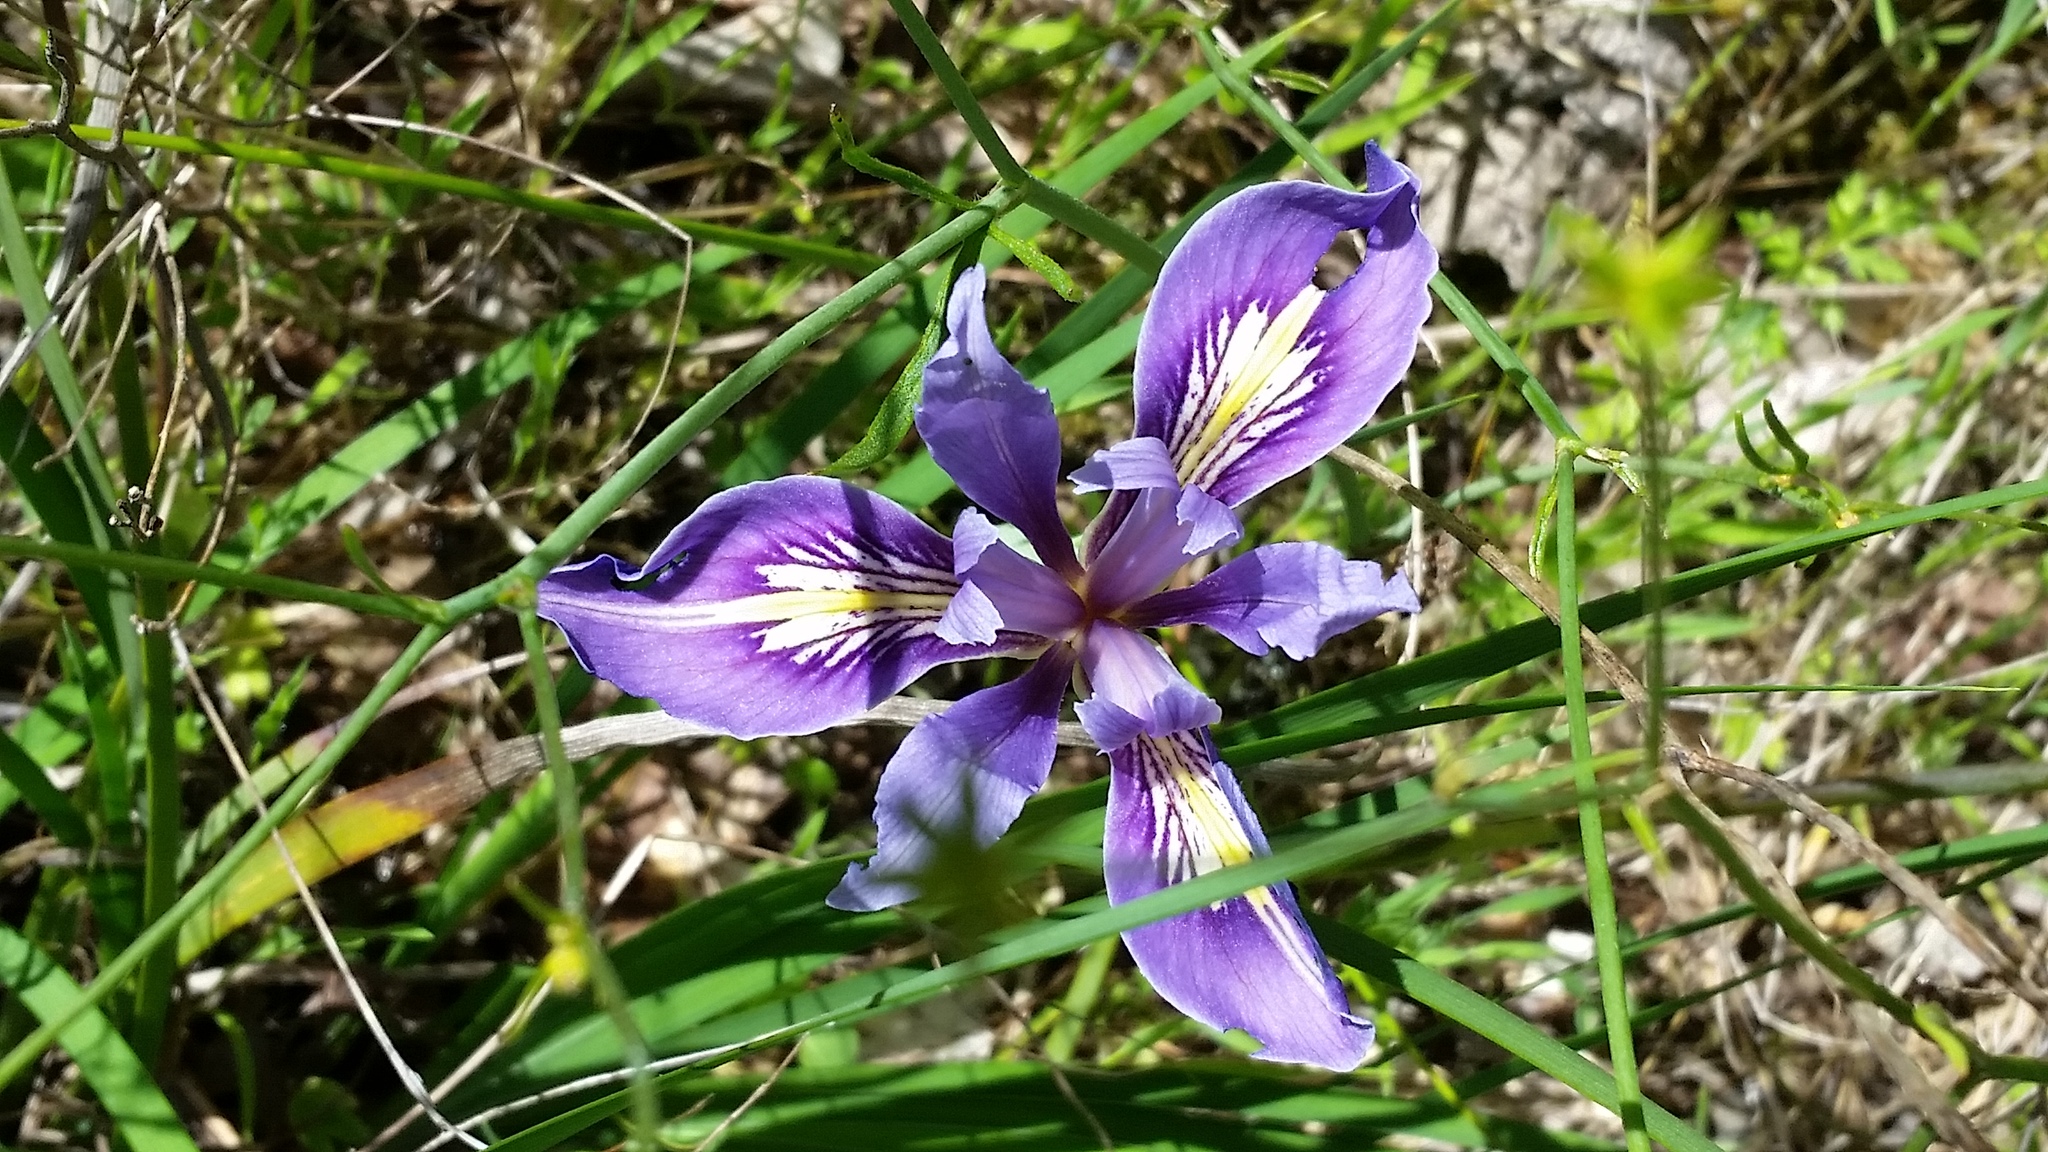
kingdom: Plantae
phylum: Tracheophyta
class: Liliopsida
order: Asparagales
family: Iridaceae
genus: Iris
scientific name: Iris macrosiphon
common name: Ground iris
